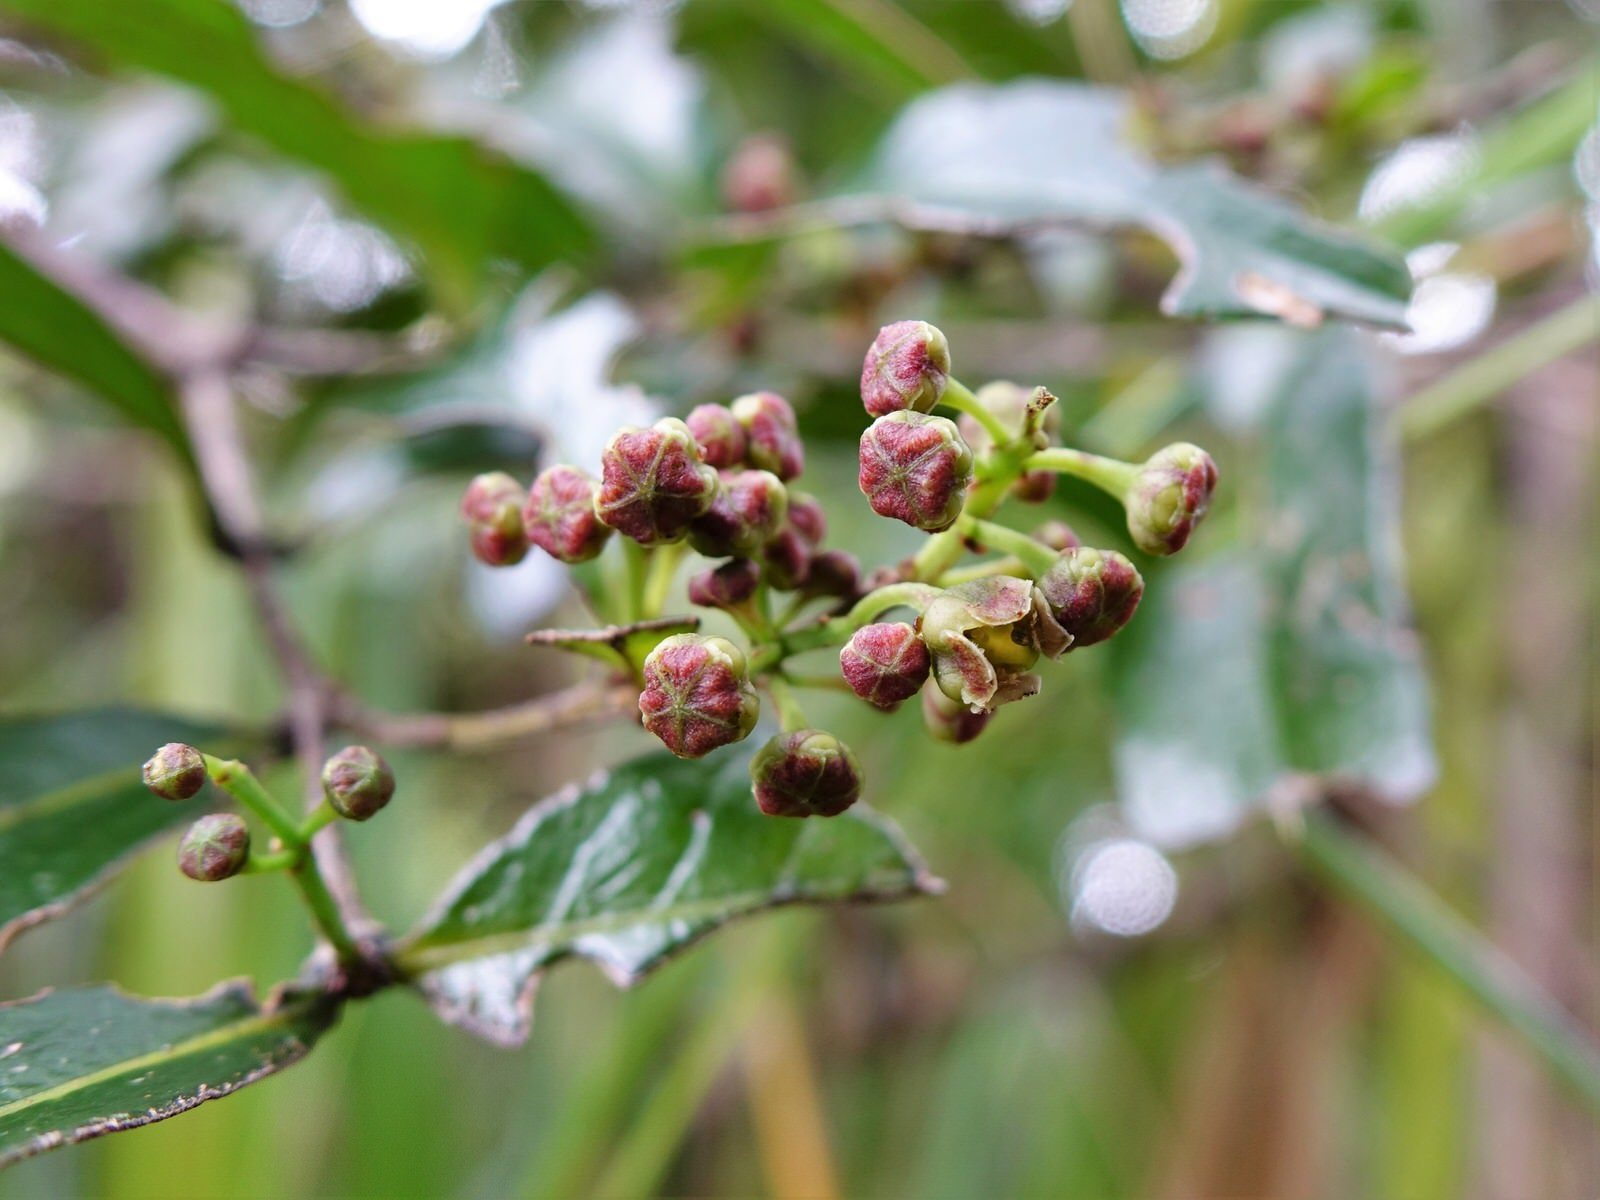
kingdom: Plantae
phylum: Tracheophyta
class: Magnoliopsida
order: Santalales
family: Nanodeaceae
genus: Mida
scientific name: Mida salicifolia
